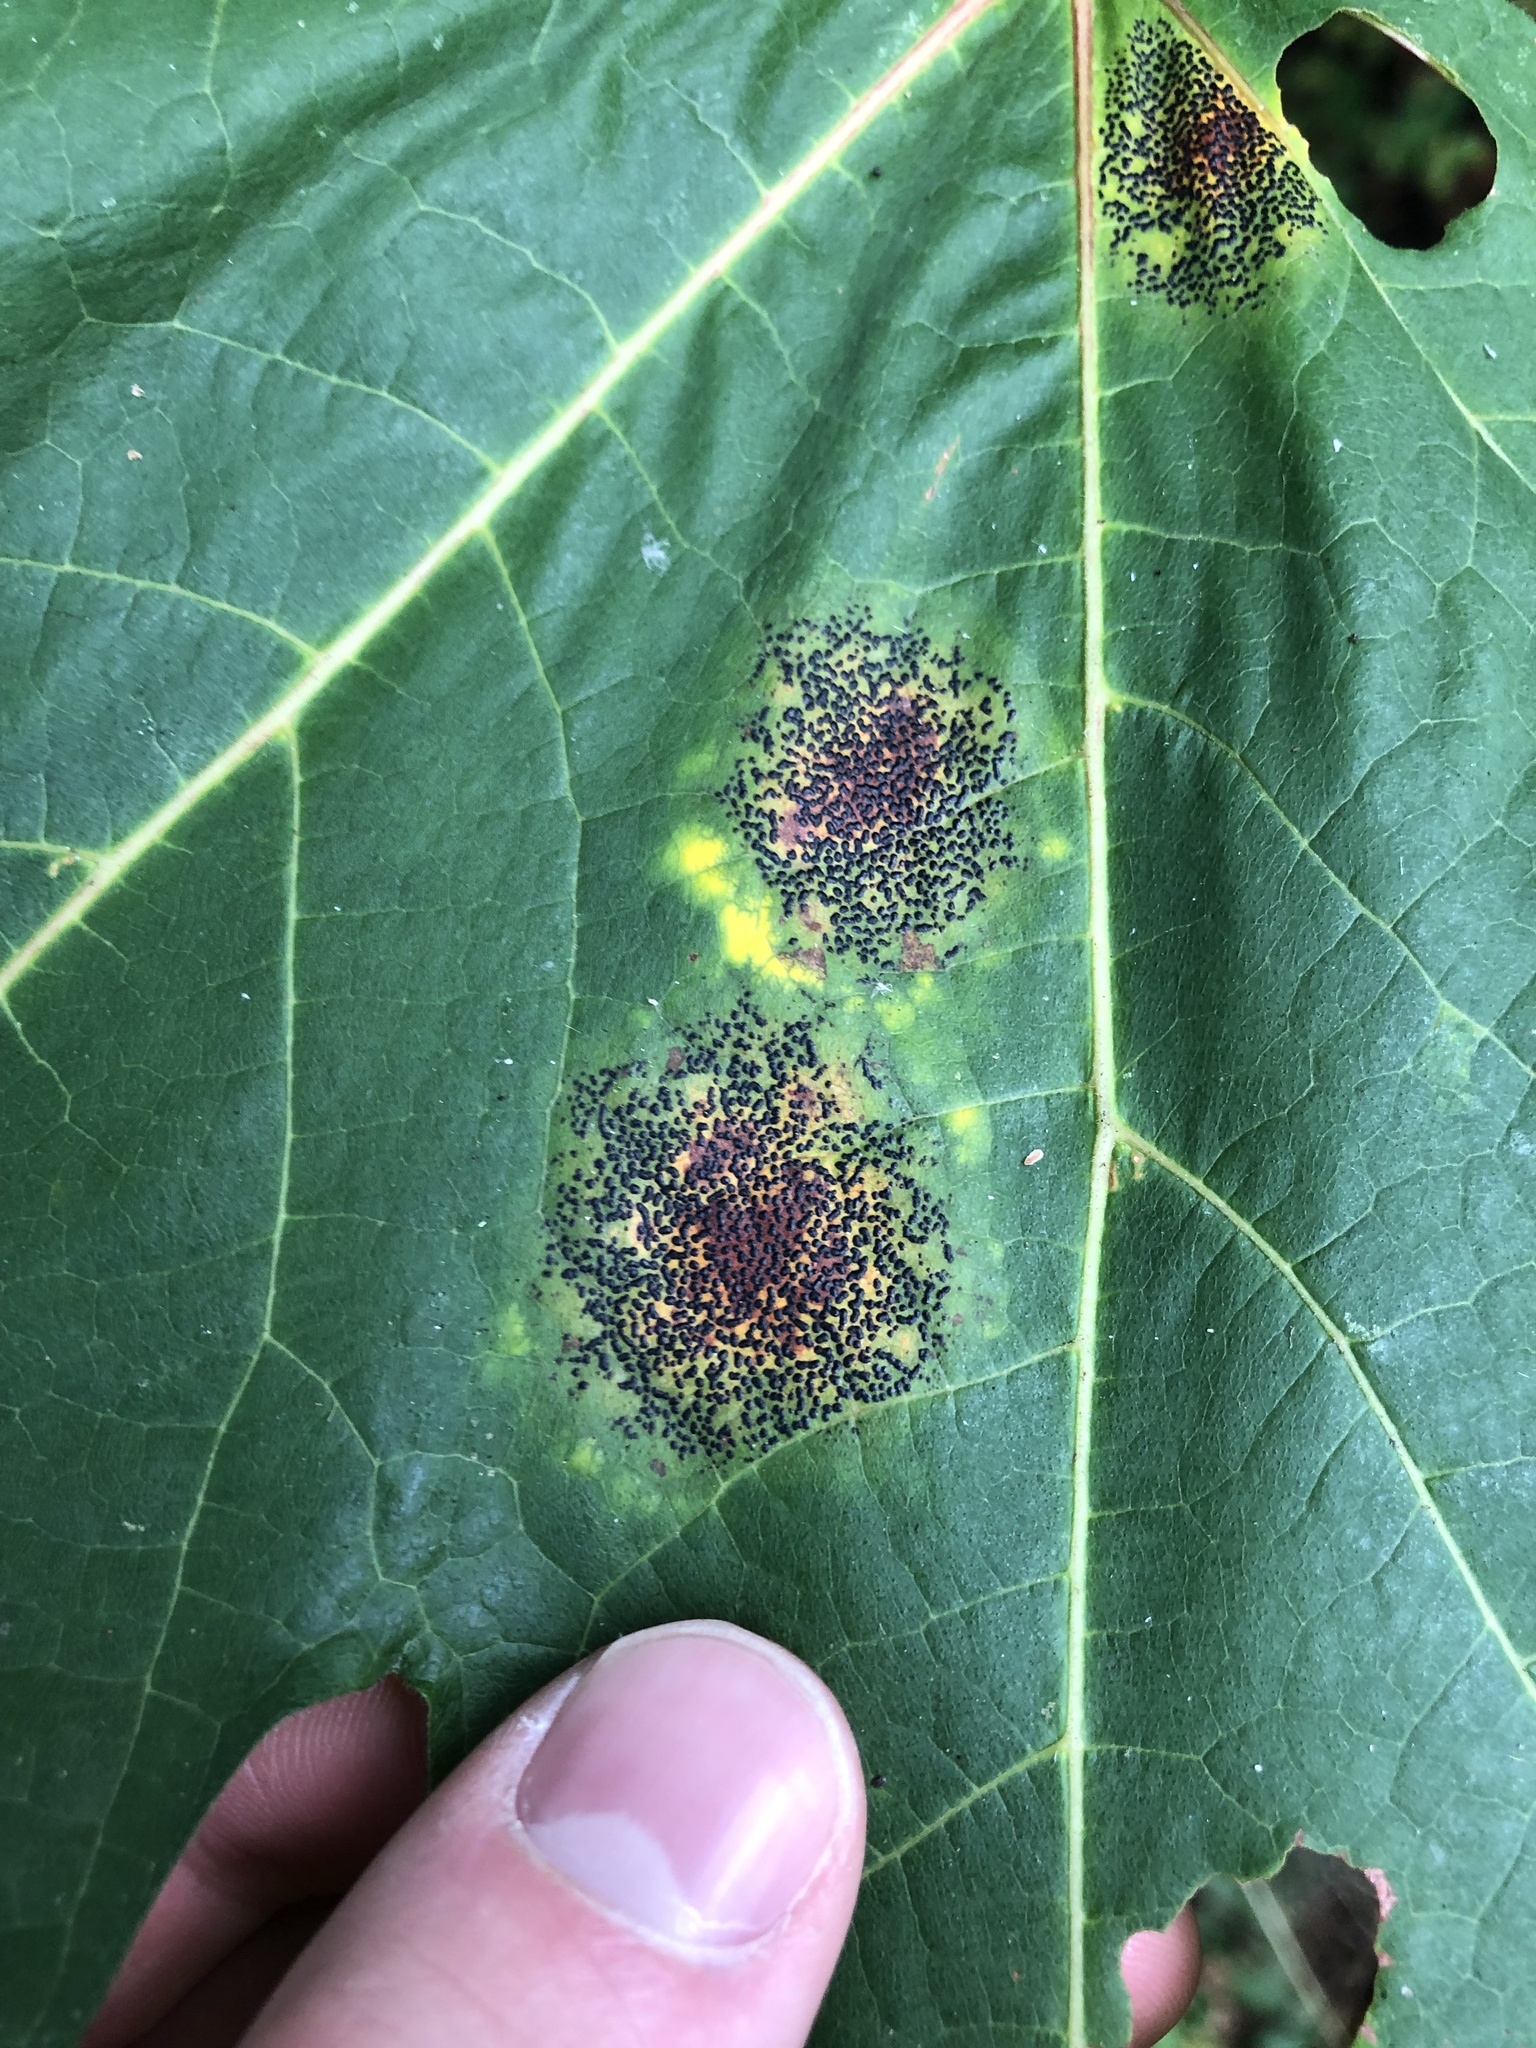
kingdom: Fungi
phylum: Ascomycota
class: Leotiomycetes
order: Rhytismatales
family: Rhytismataceae
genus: Rhytisma
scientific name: Rhytisma punctatum
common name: Speckled tar spot
